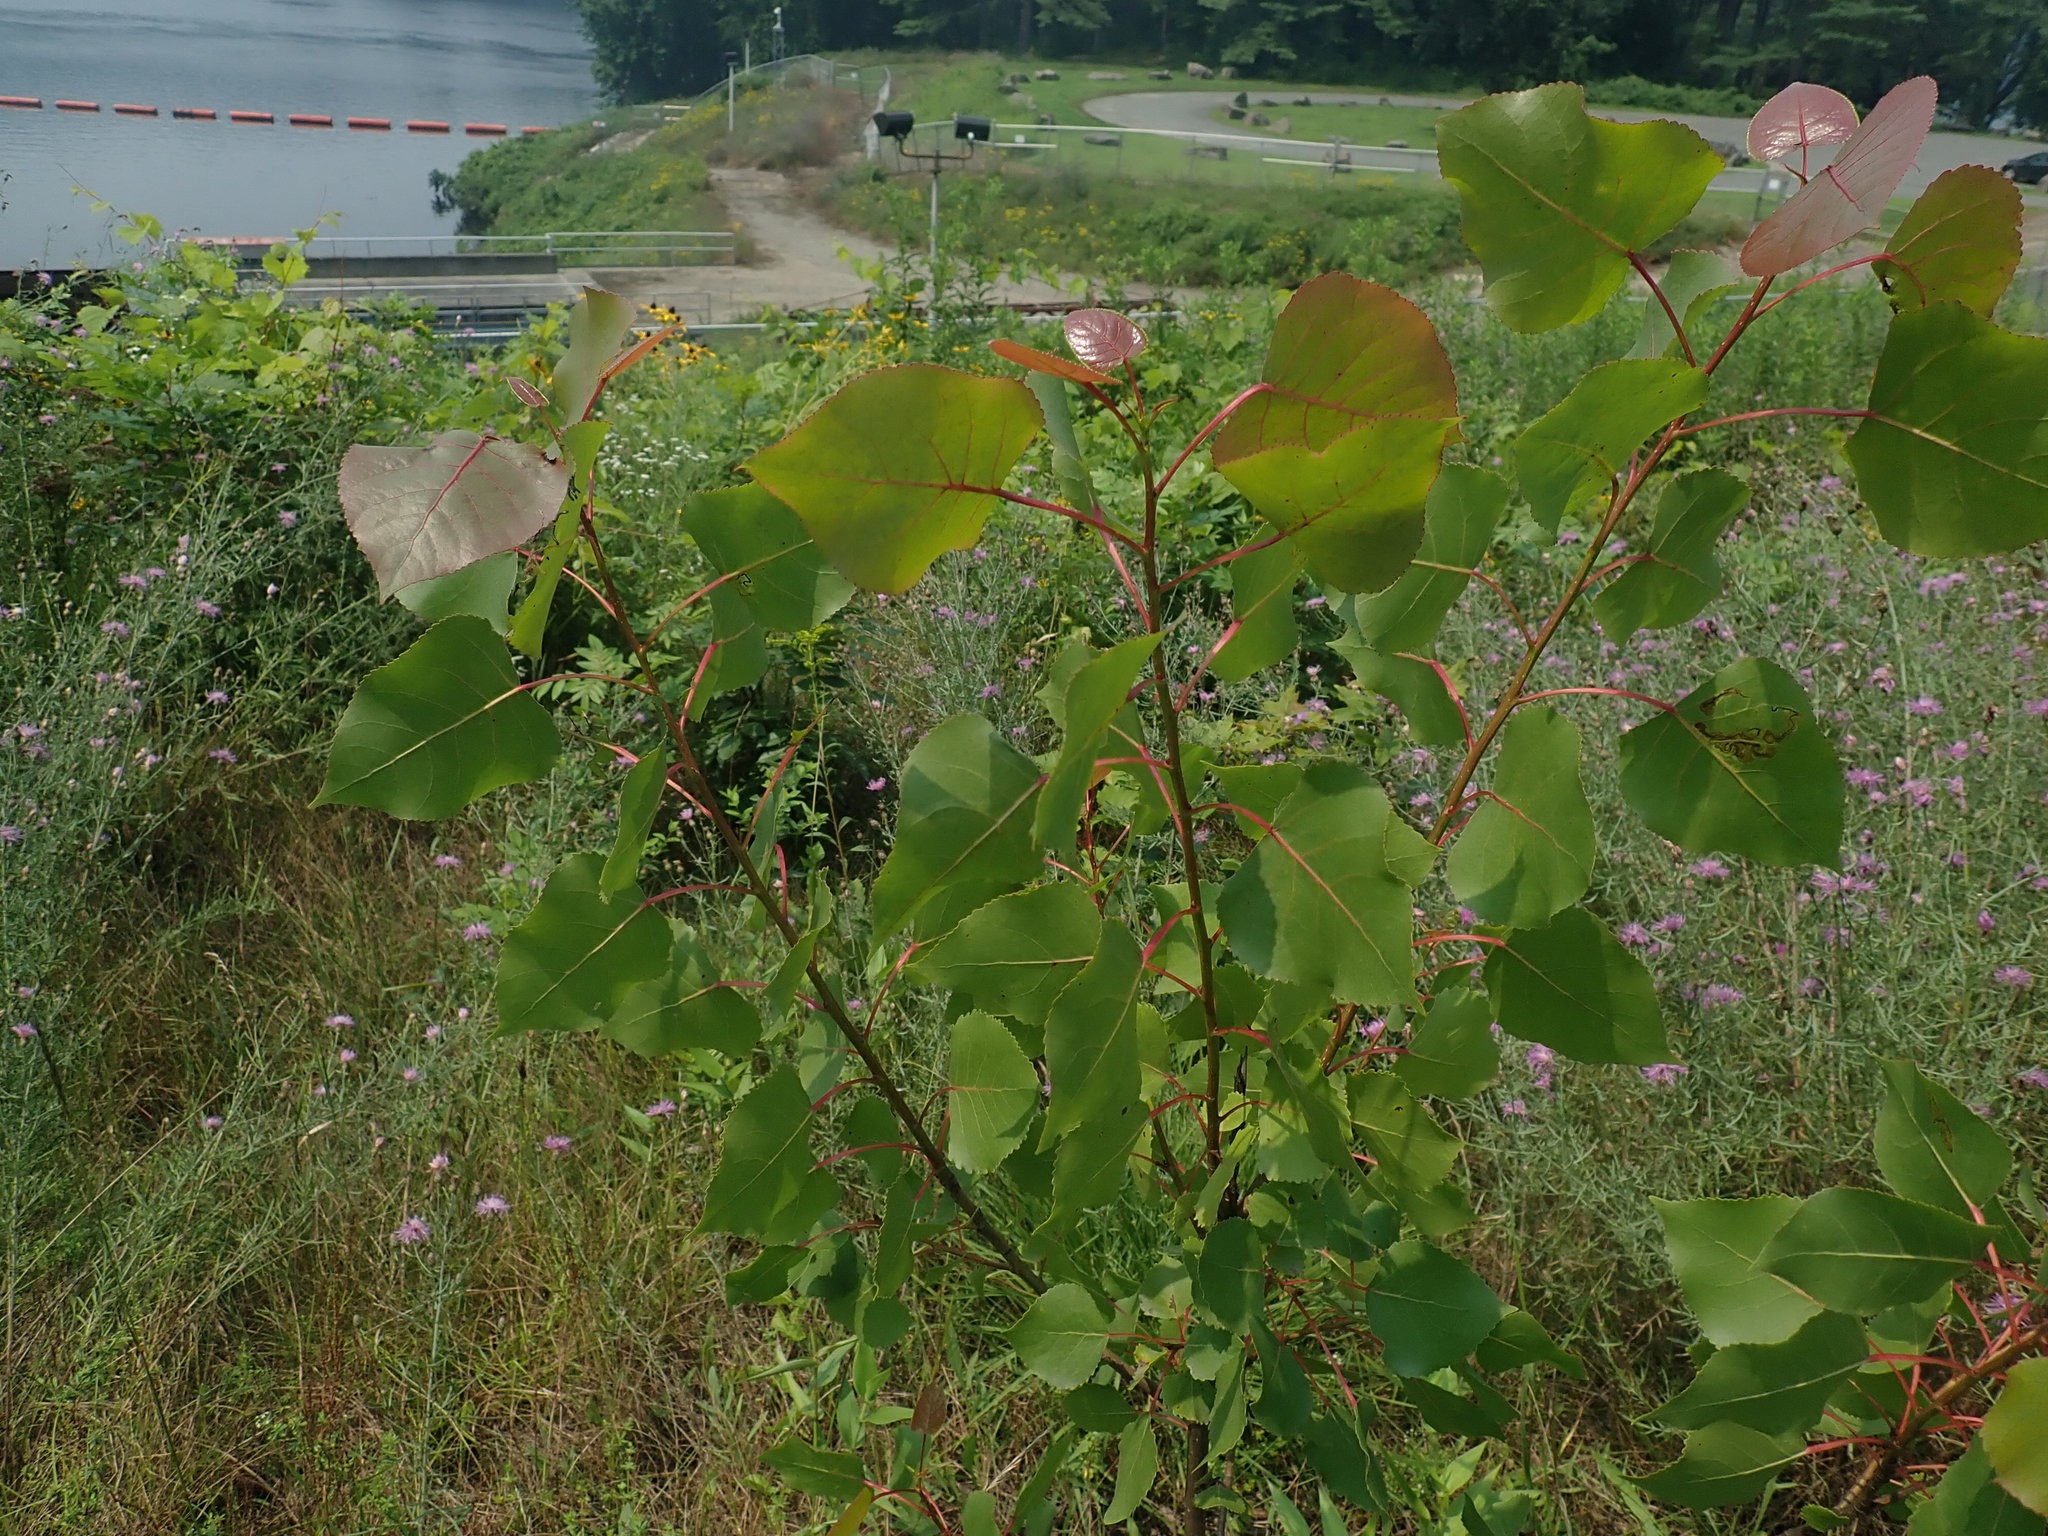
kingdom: Plantae
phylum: Tracheophyta
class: Magnoliopsida
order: Malpighiales
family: Salicaceae
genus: Populus
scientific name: Populus deltoides
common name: Eastern cottonwood
